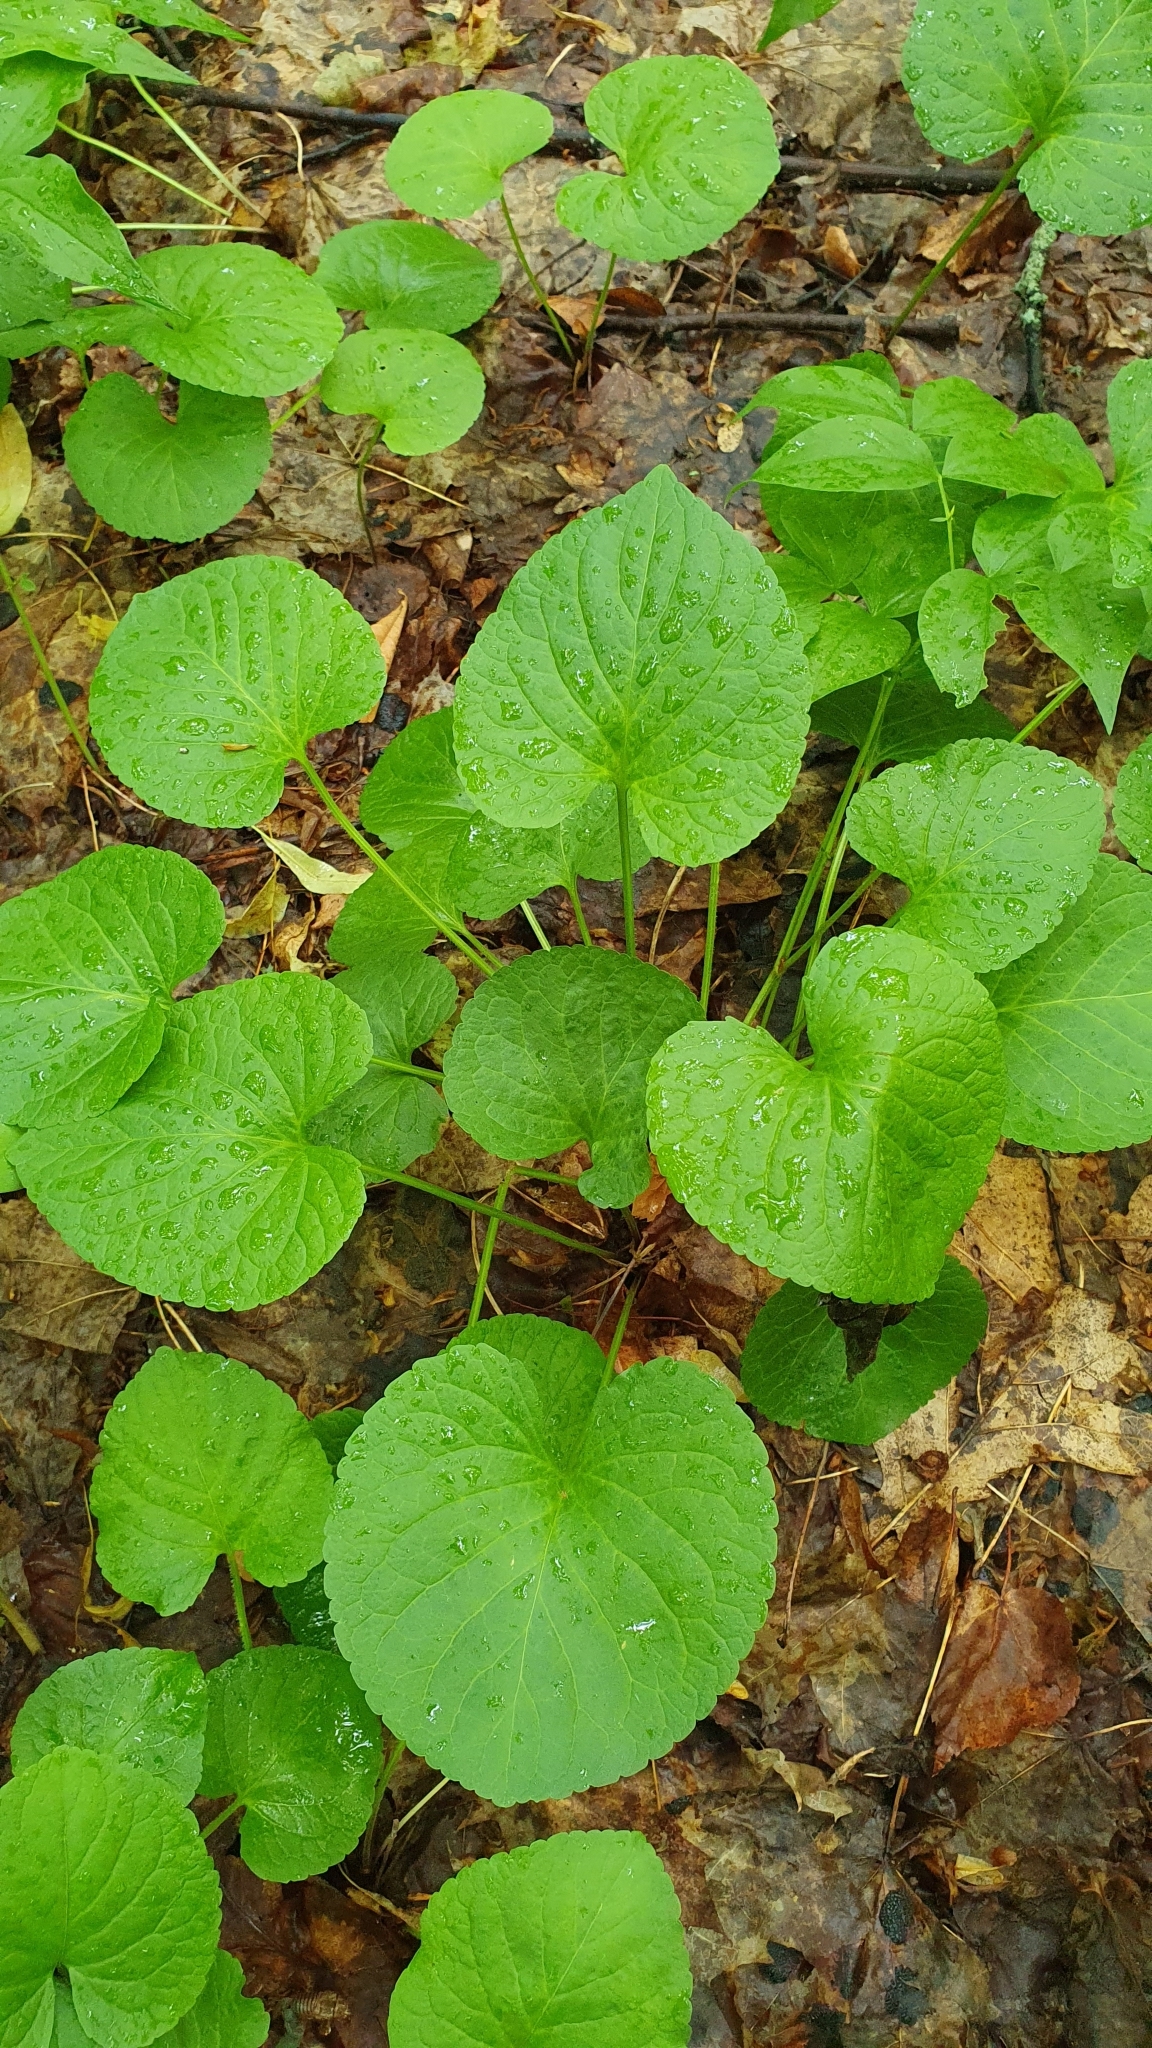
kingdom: Plantae
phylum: Tracheophyta
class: Magnoliopsida
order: Malpighiales
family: Violaceae
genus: Viola
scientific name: Viola mirabilis
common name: Wonder violet
